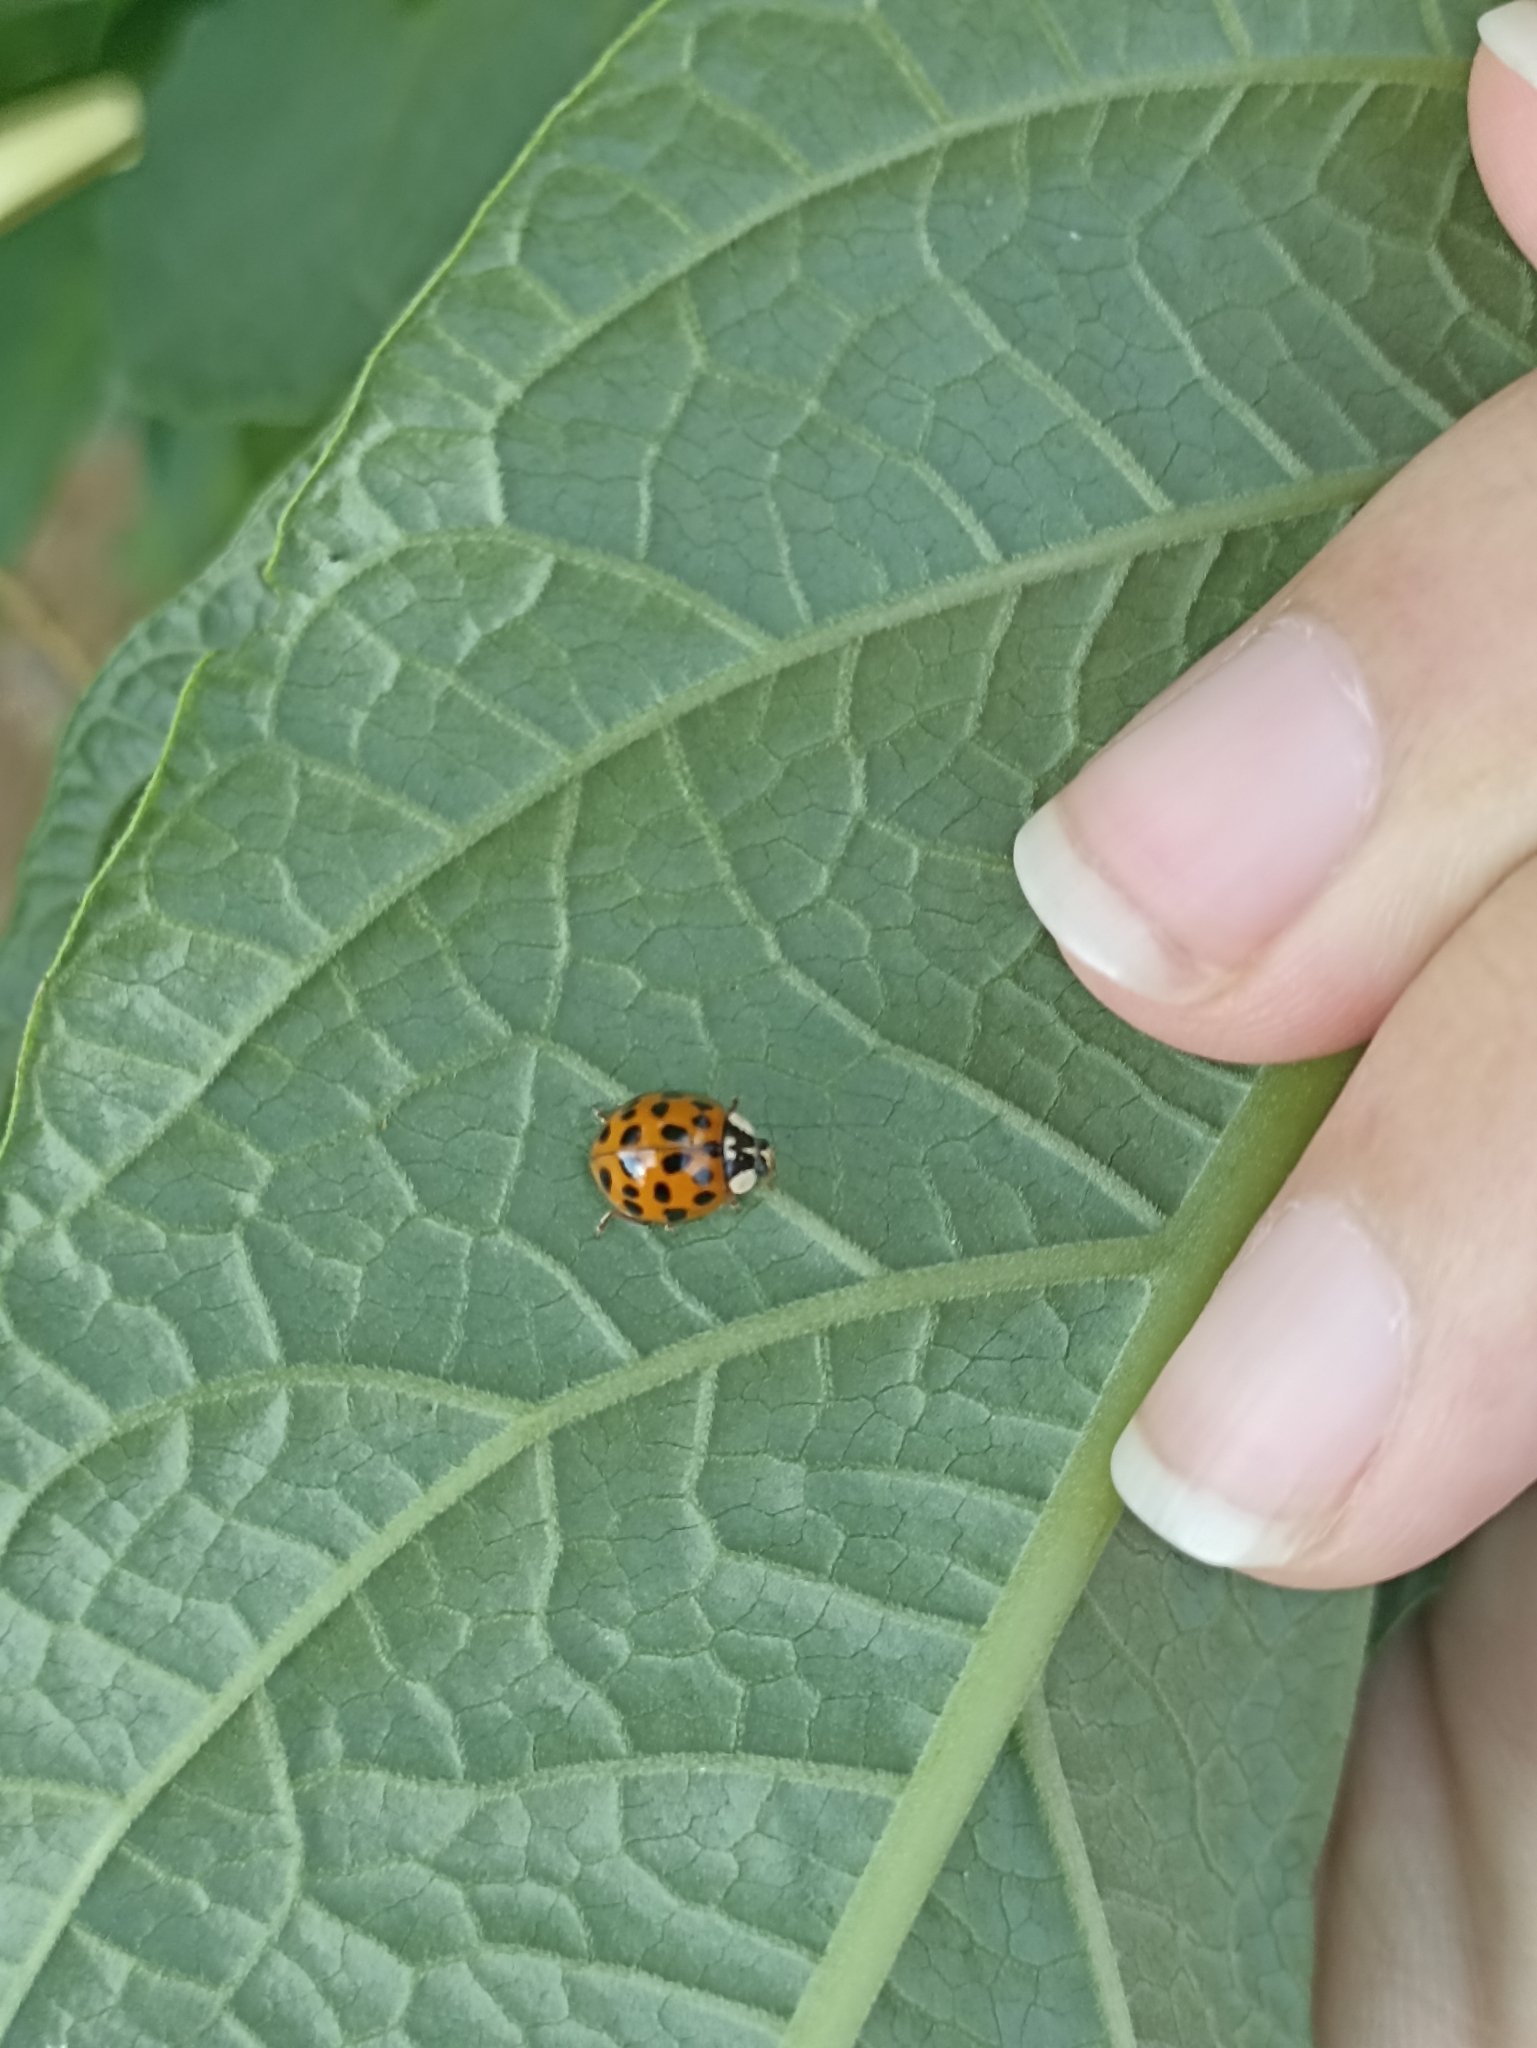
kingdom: Animalia
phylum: Arthropoda
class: Insecta
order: Coleoptera
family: Coccinellidae
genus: Harmonia
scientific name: Harmonia axyridis
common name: Harlequin ladybird
